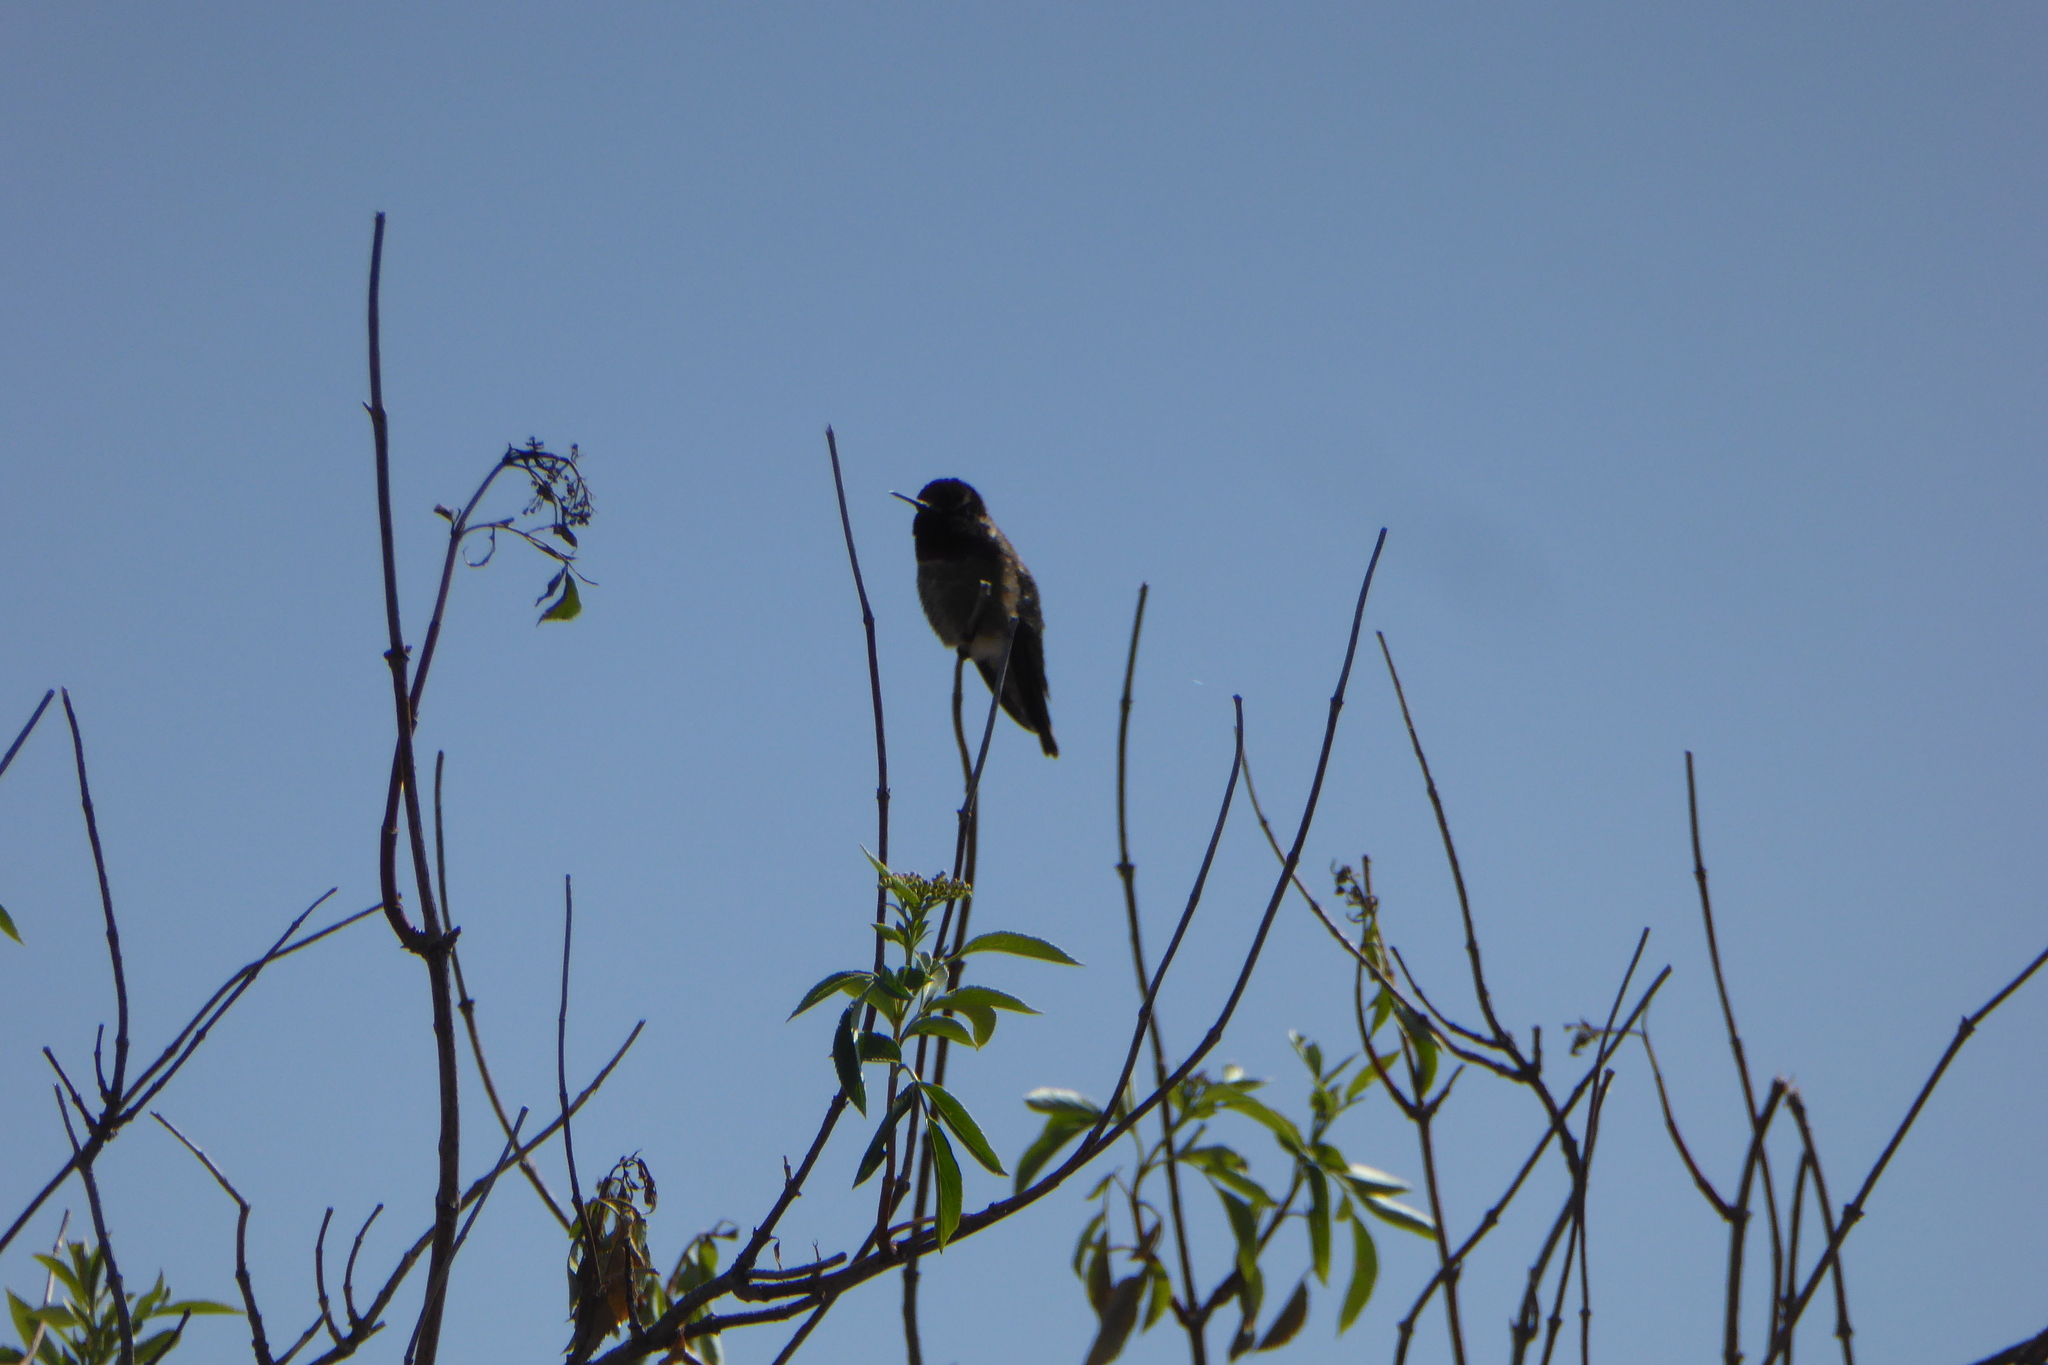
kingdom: Animalia
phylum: Chordata
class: Aves
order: Apodiformes
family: Trochilidae
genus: Calypte
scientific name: Calypte anna
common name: Anna's hummingbird
